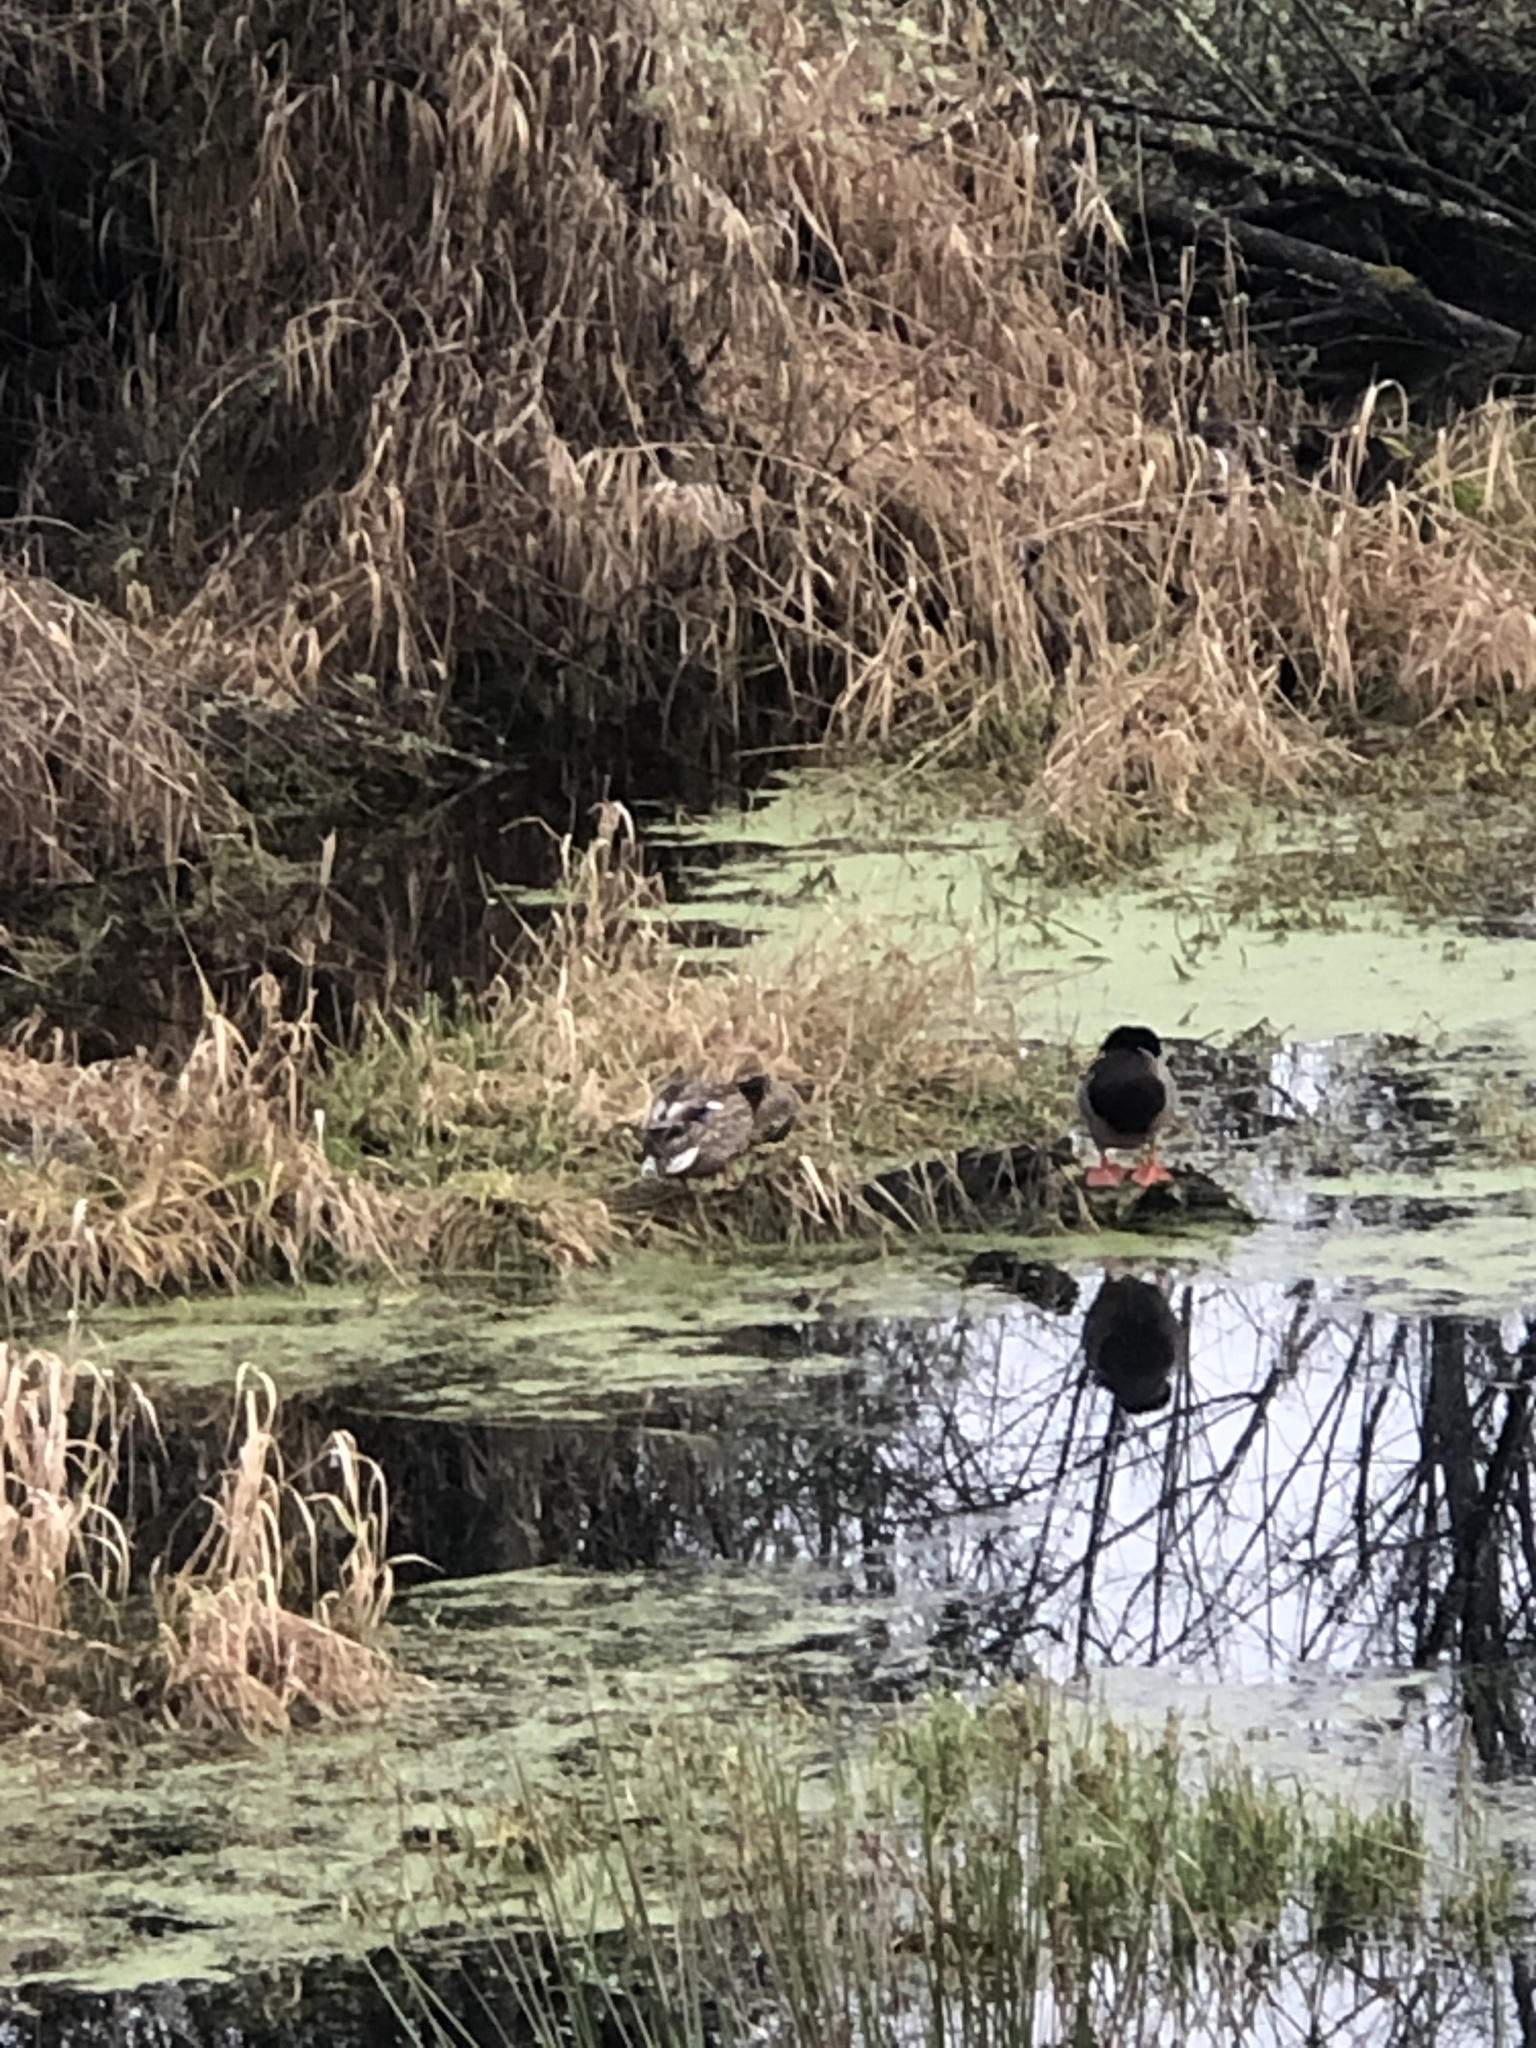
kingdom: Animalia
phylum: Chordata
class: Aves
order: Anseriformes
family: Anatidae
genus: Anas
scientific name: Anas platyrhynchos
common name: Mallard
